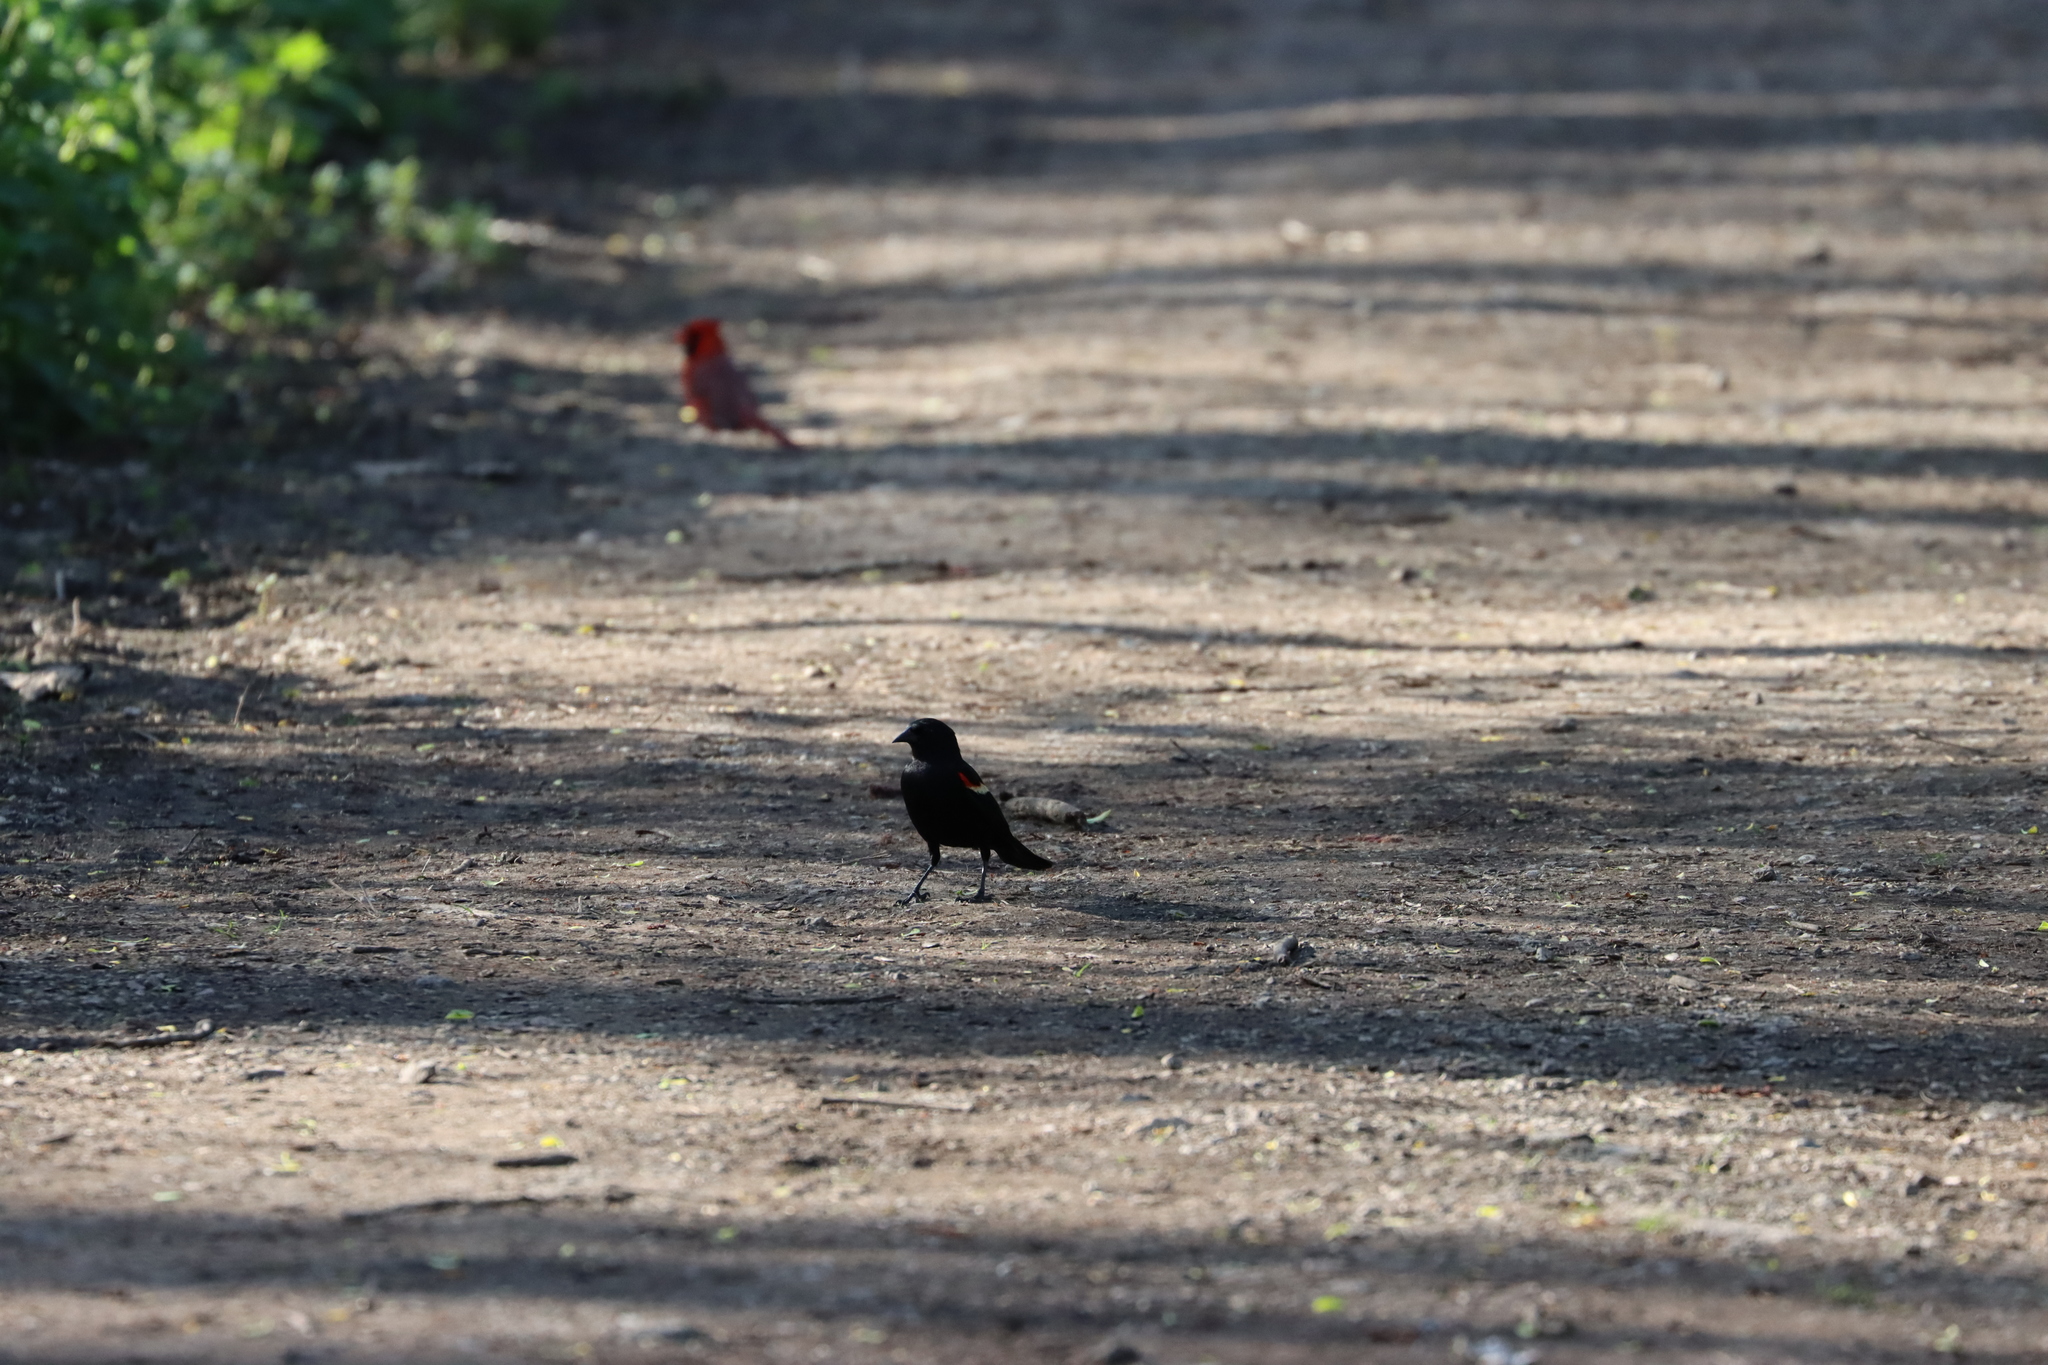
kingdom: Animalia
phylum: Chordata
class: Aves
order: Passeriformes
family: Icteridae
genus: Agelaius
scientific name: Agelaius phoeniceus
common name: Red-winged blackbird
